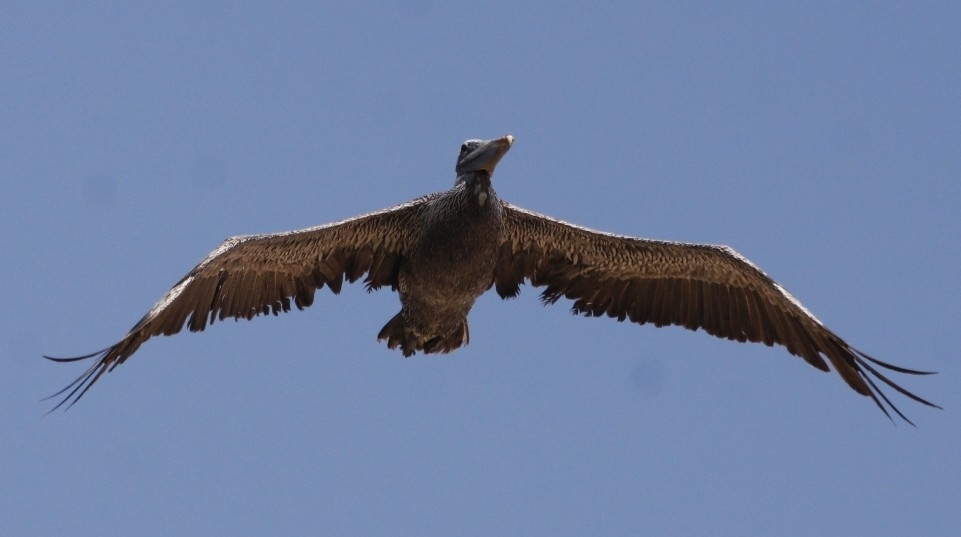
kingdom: Animalia
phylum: Chordata
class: Aves
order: Pelecaniformes
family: Pelecanidae
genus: Pelecanus
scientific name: Pelecanus occidentalis
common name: Brown pelican
